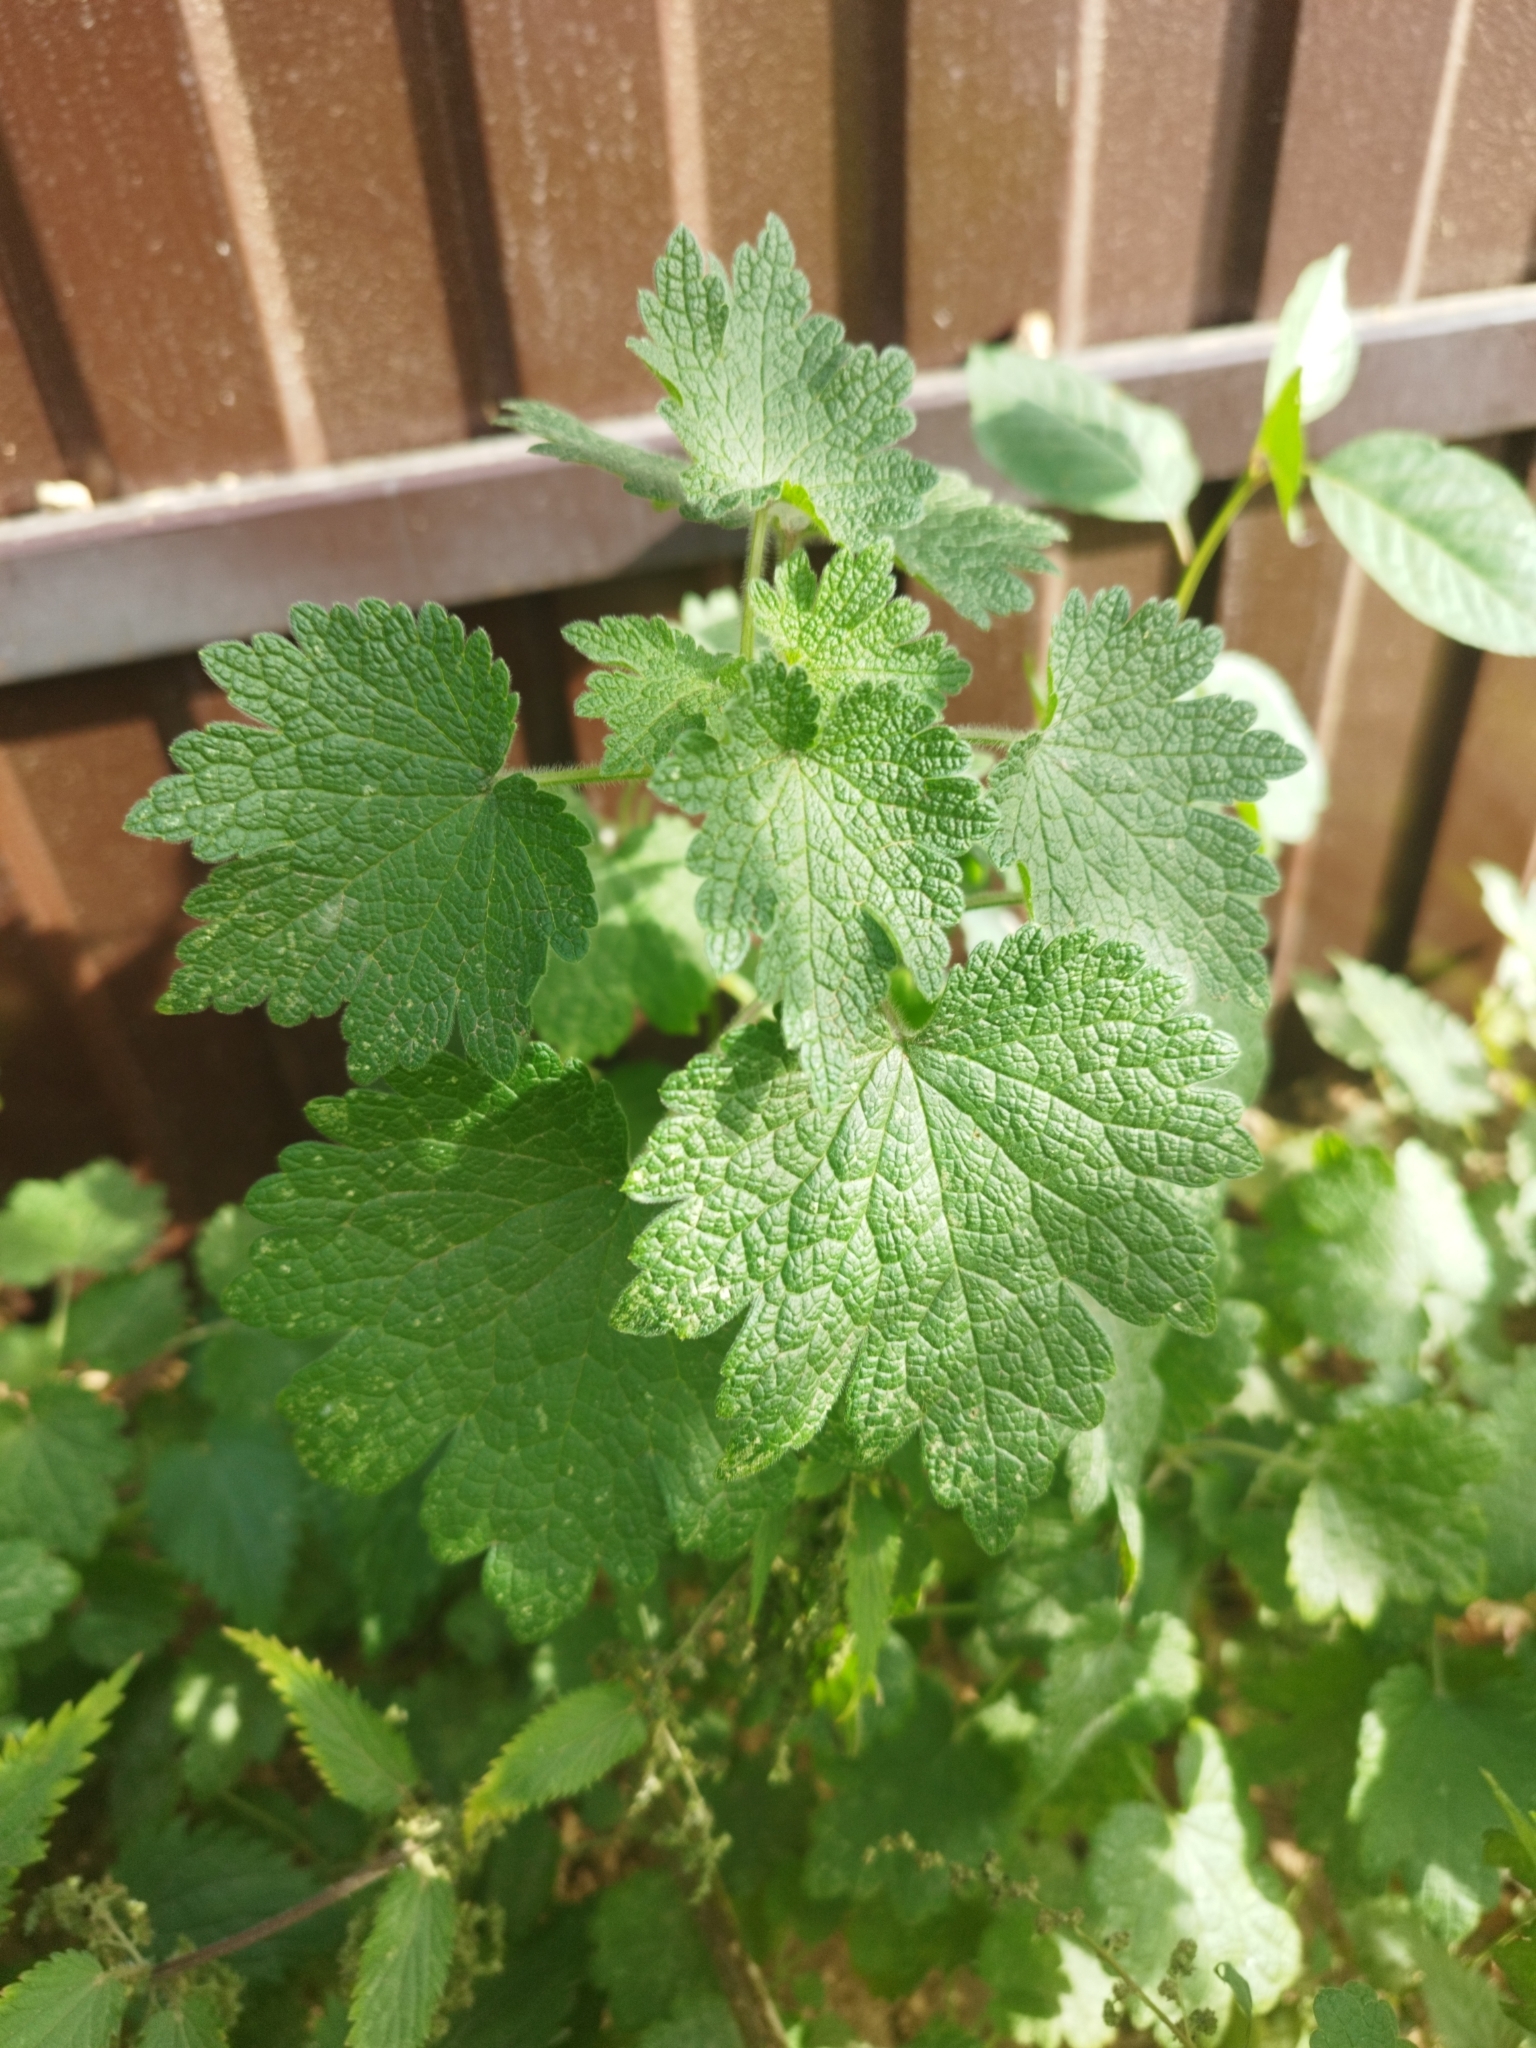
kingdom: Plantae
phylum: Tracheophyta
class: Magnoliopsida
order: Lamiales
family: Lamiaceae
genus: Leonurus
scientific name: Leonurus quinquelobatus
